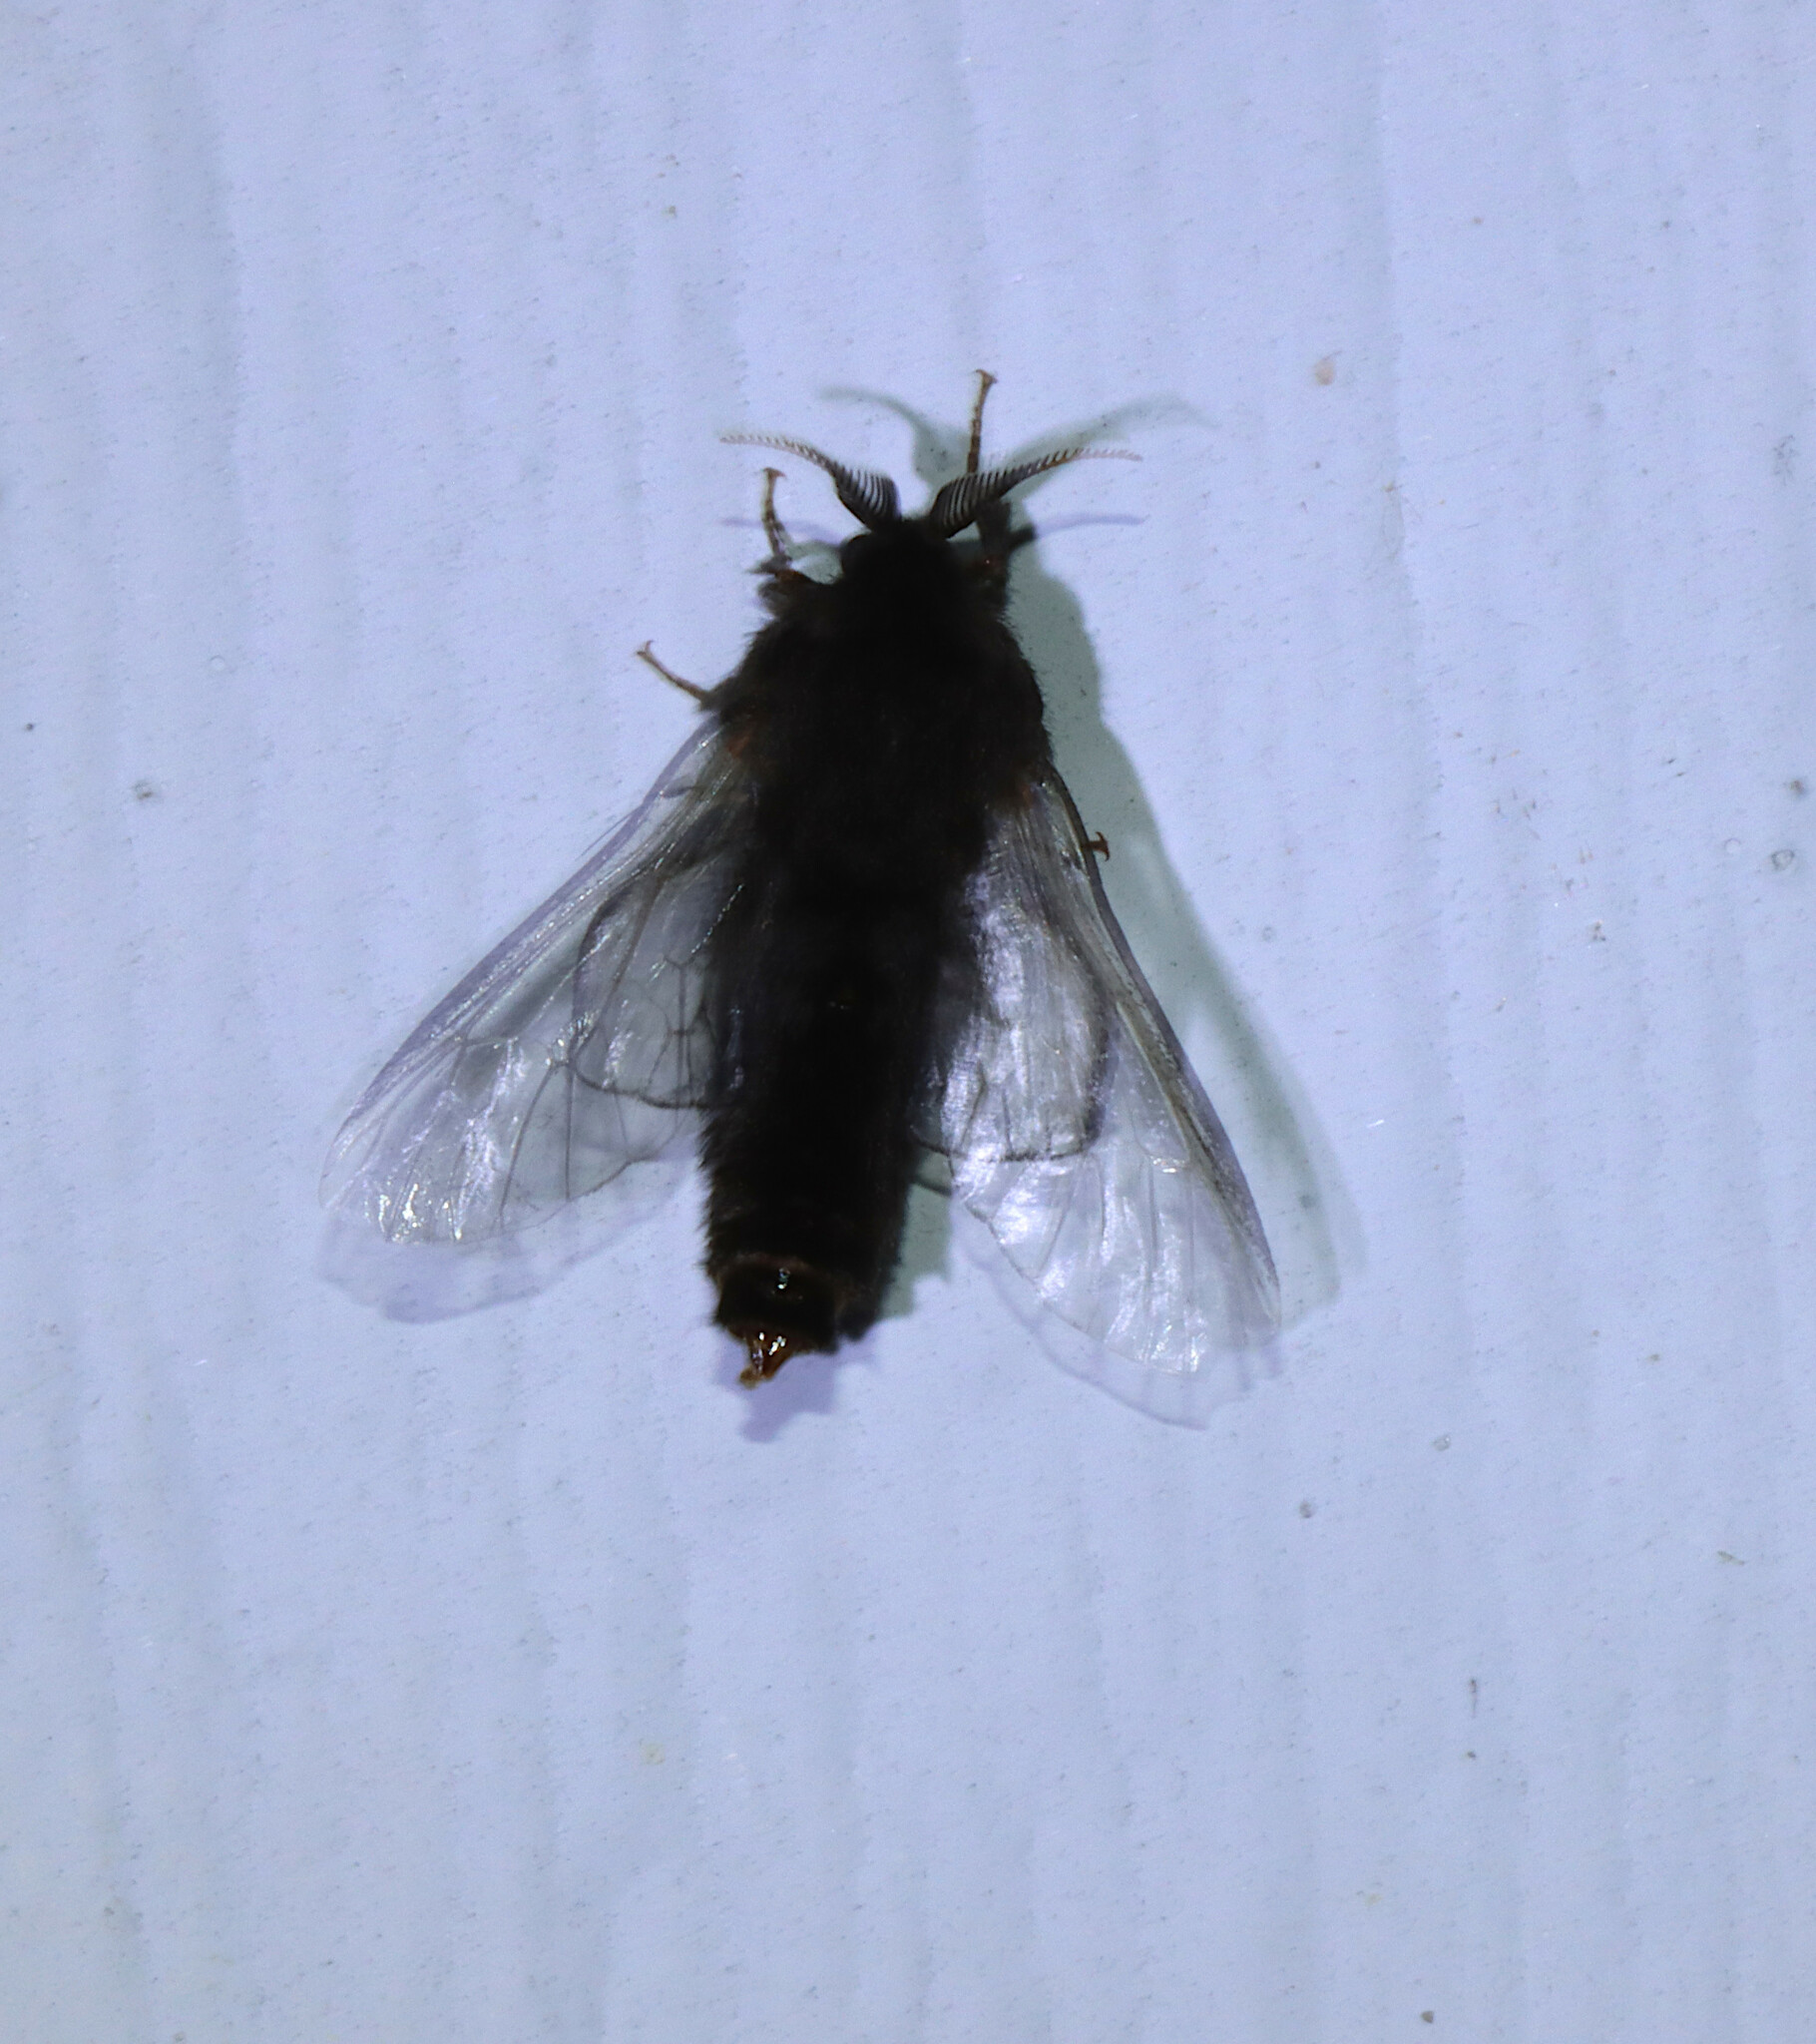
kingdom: Animalia
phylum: Arthropoda
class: Insecta
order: Lepidoptera
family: Psychidae
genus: Thyridopteryx
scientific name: Thyridopteryx ephemeraeformis
